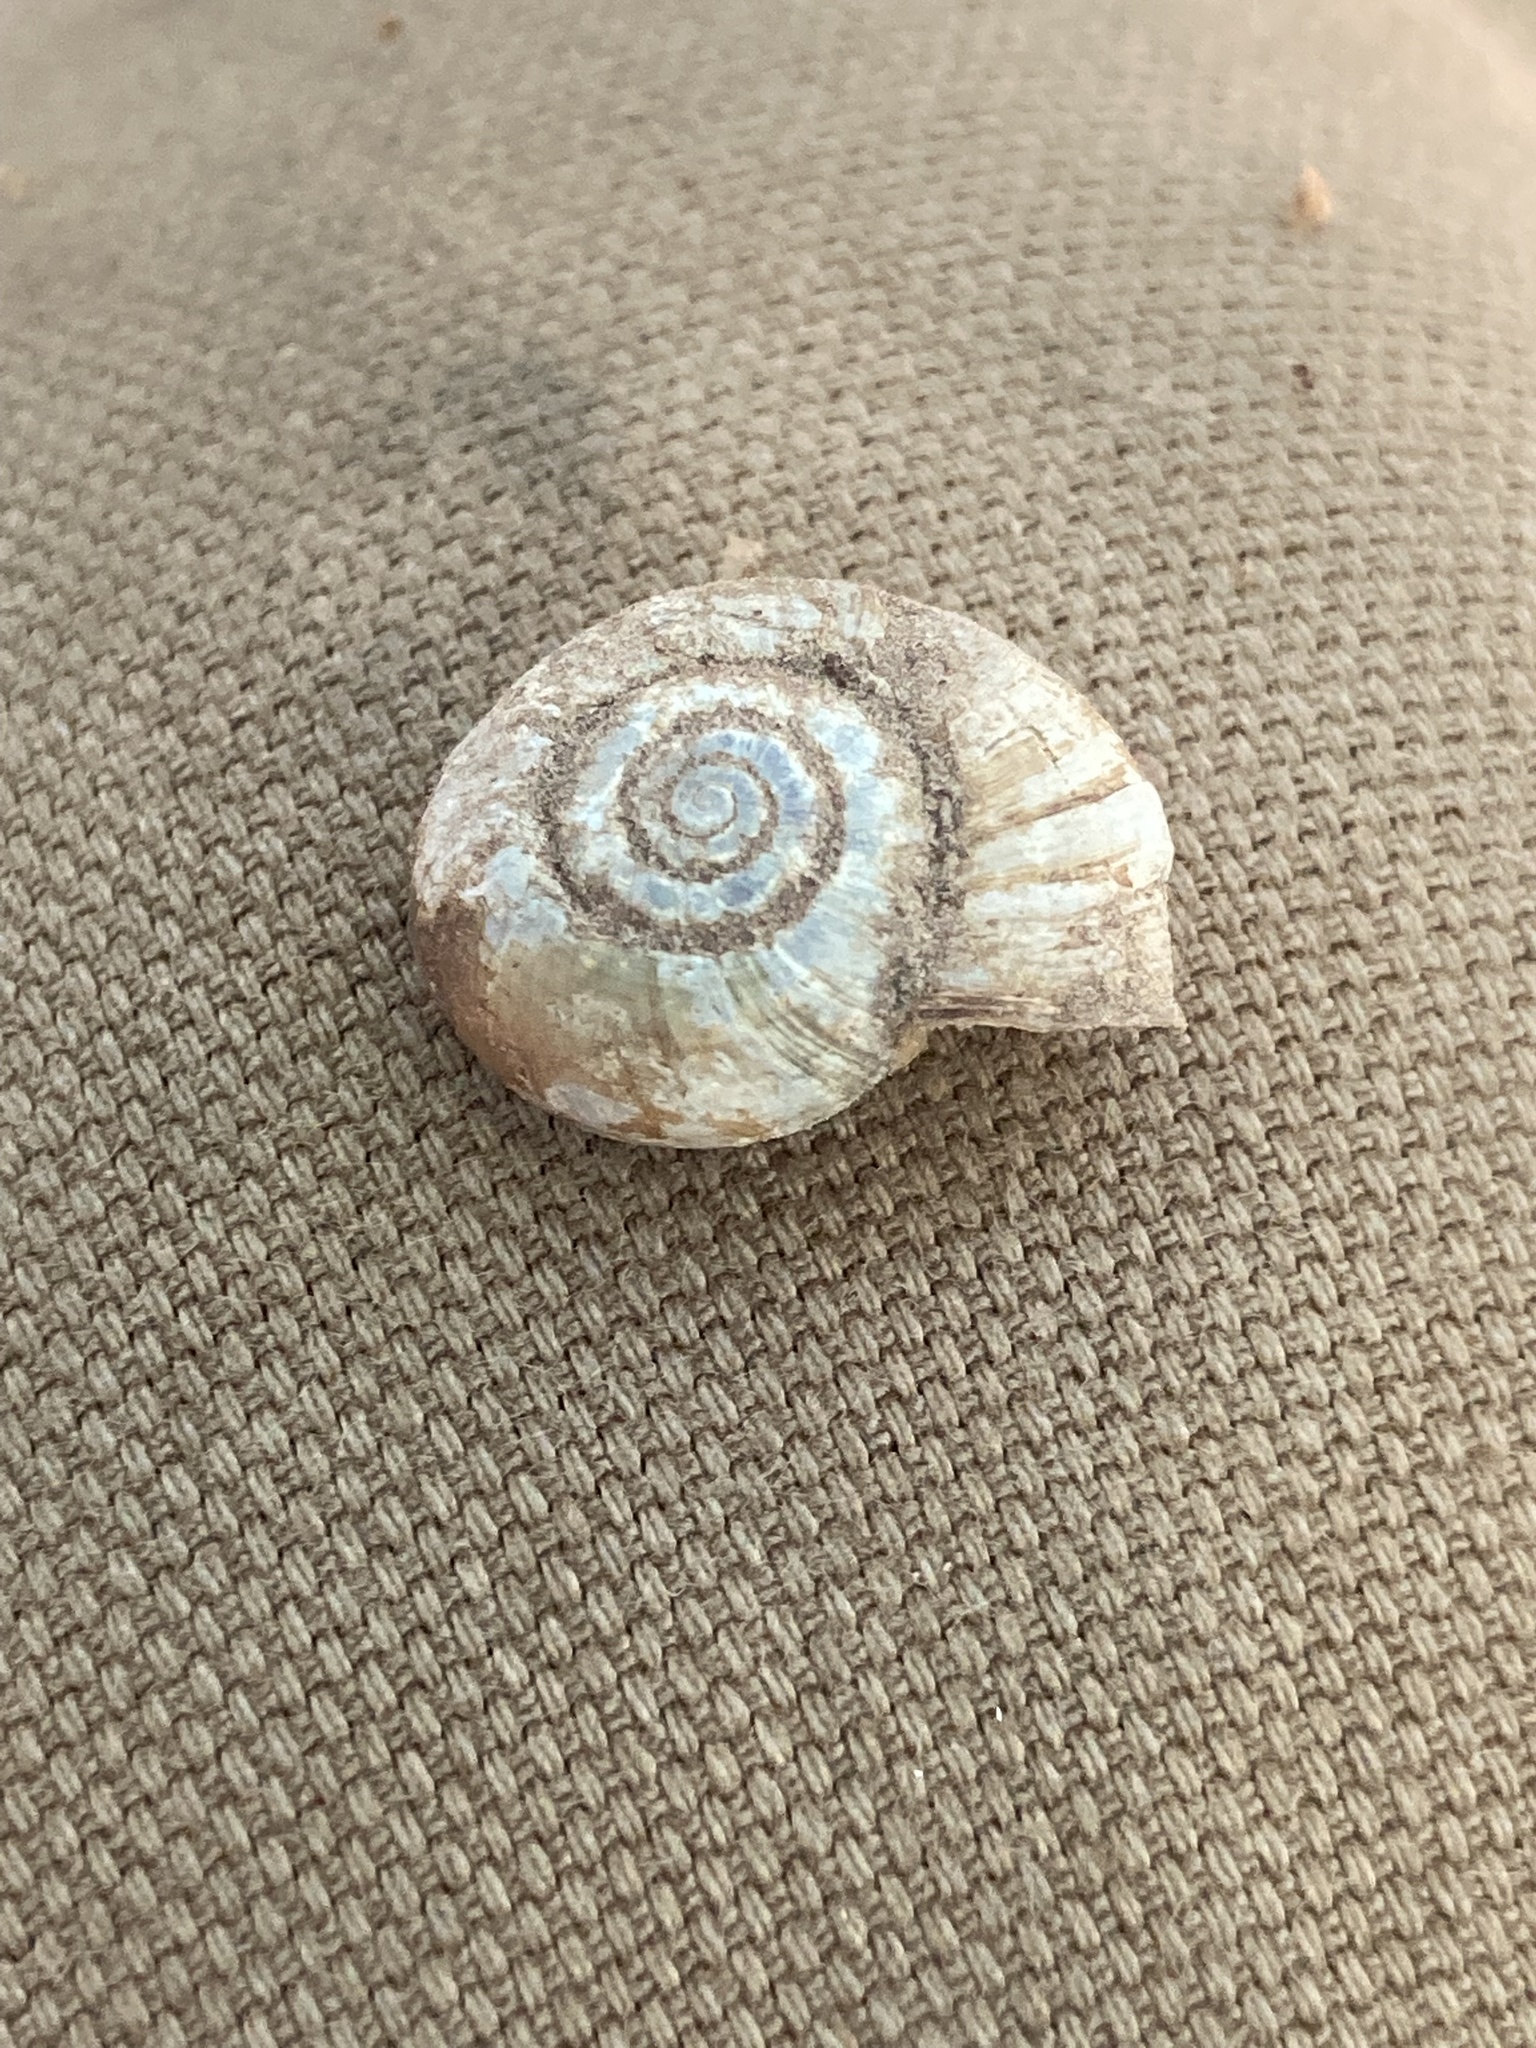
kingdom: Animalia
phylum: Mollusca
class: Gastropoda
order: Stylommatophora
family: Haplotrematidae
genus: Haplotrema
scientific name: Haplotrema concavum
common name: Gray-foot lancetooth
